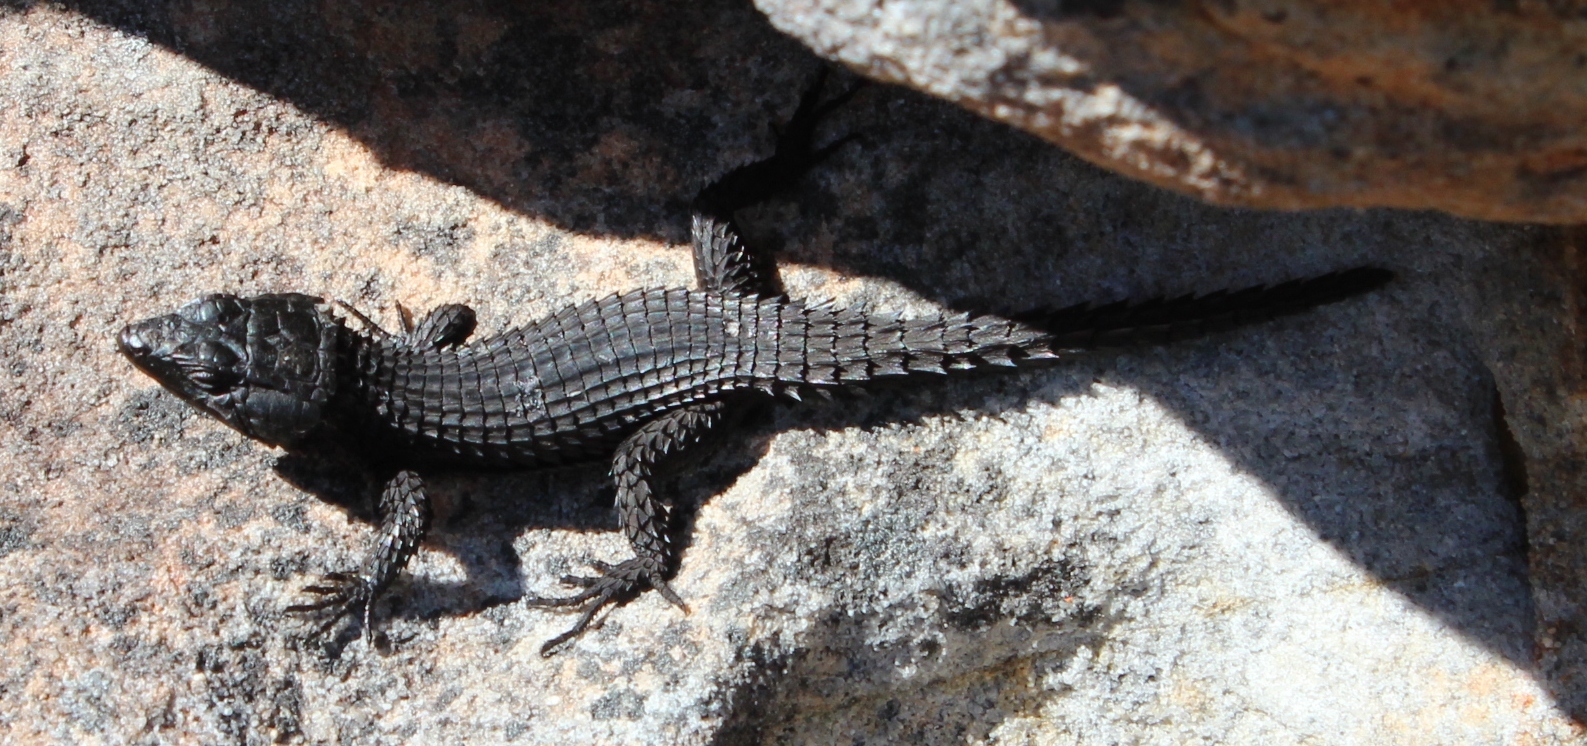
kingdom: Animalia
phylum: Chordata
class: Squamata
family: Cordylidae
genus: Cordylus
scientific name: Cordylus niger
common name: Black girdled lizard
